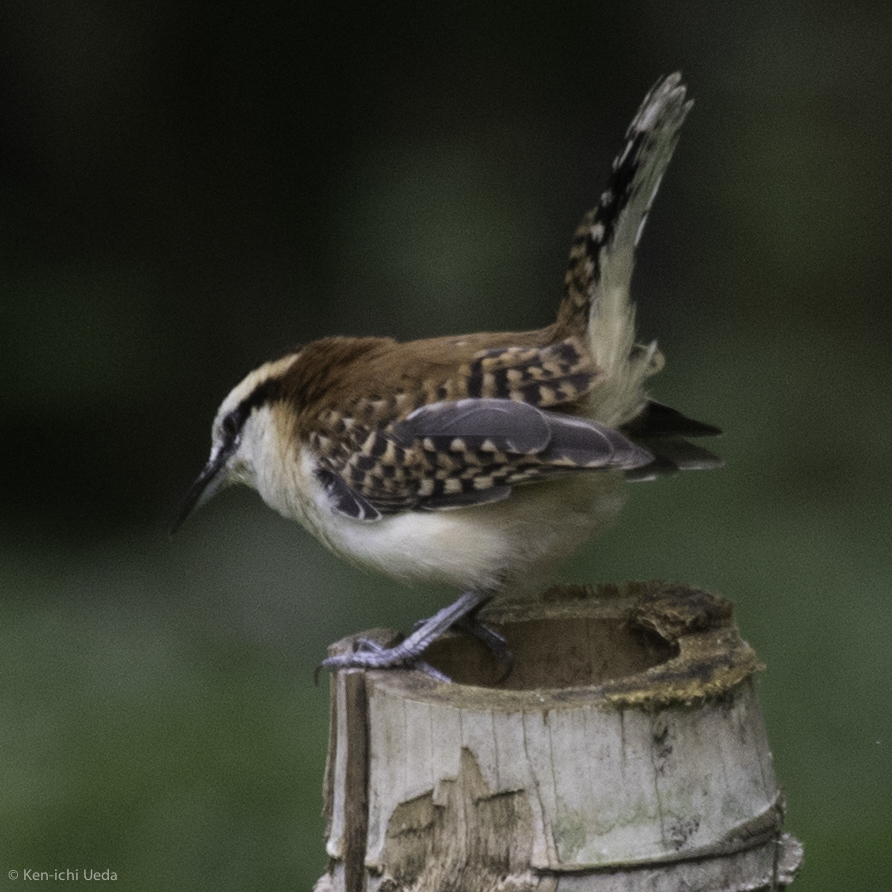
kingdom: Animalia
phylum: Chordata
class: Aves
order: Passeriformes
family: Troglodytidae
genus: Campylorhynchus
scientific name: Campylorhynchus rufinucha
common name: Rufous-naped wren
